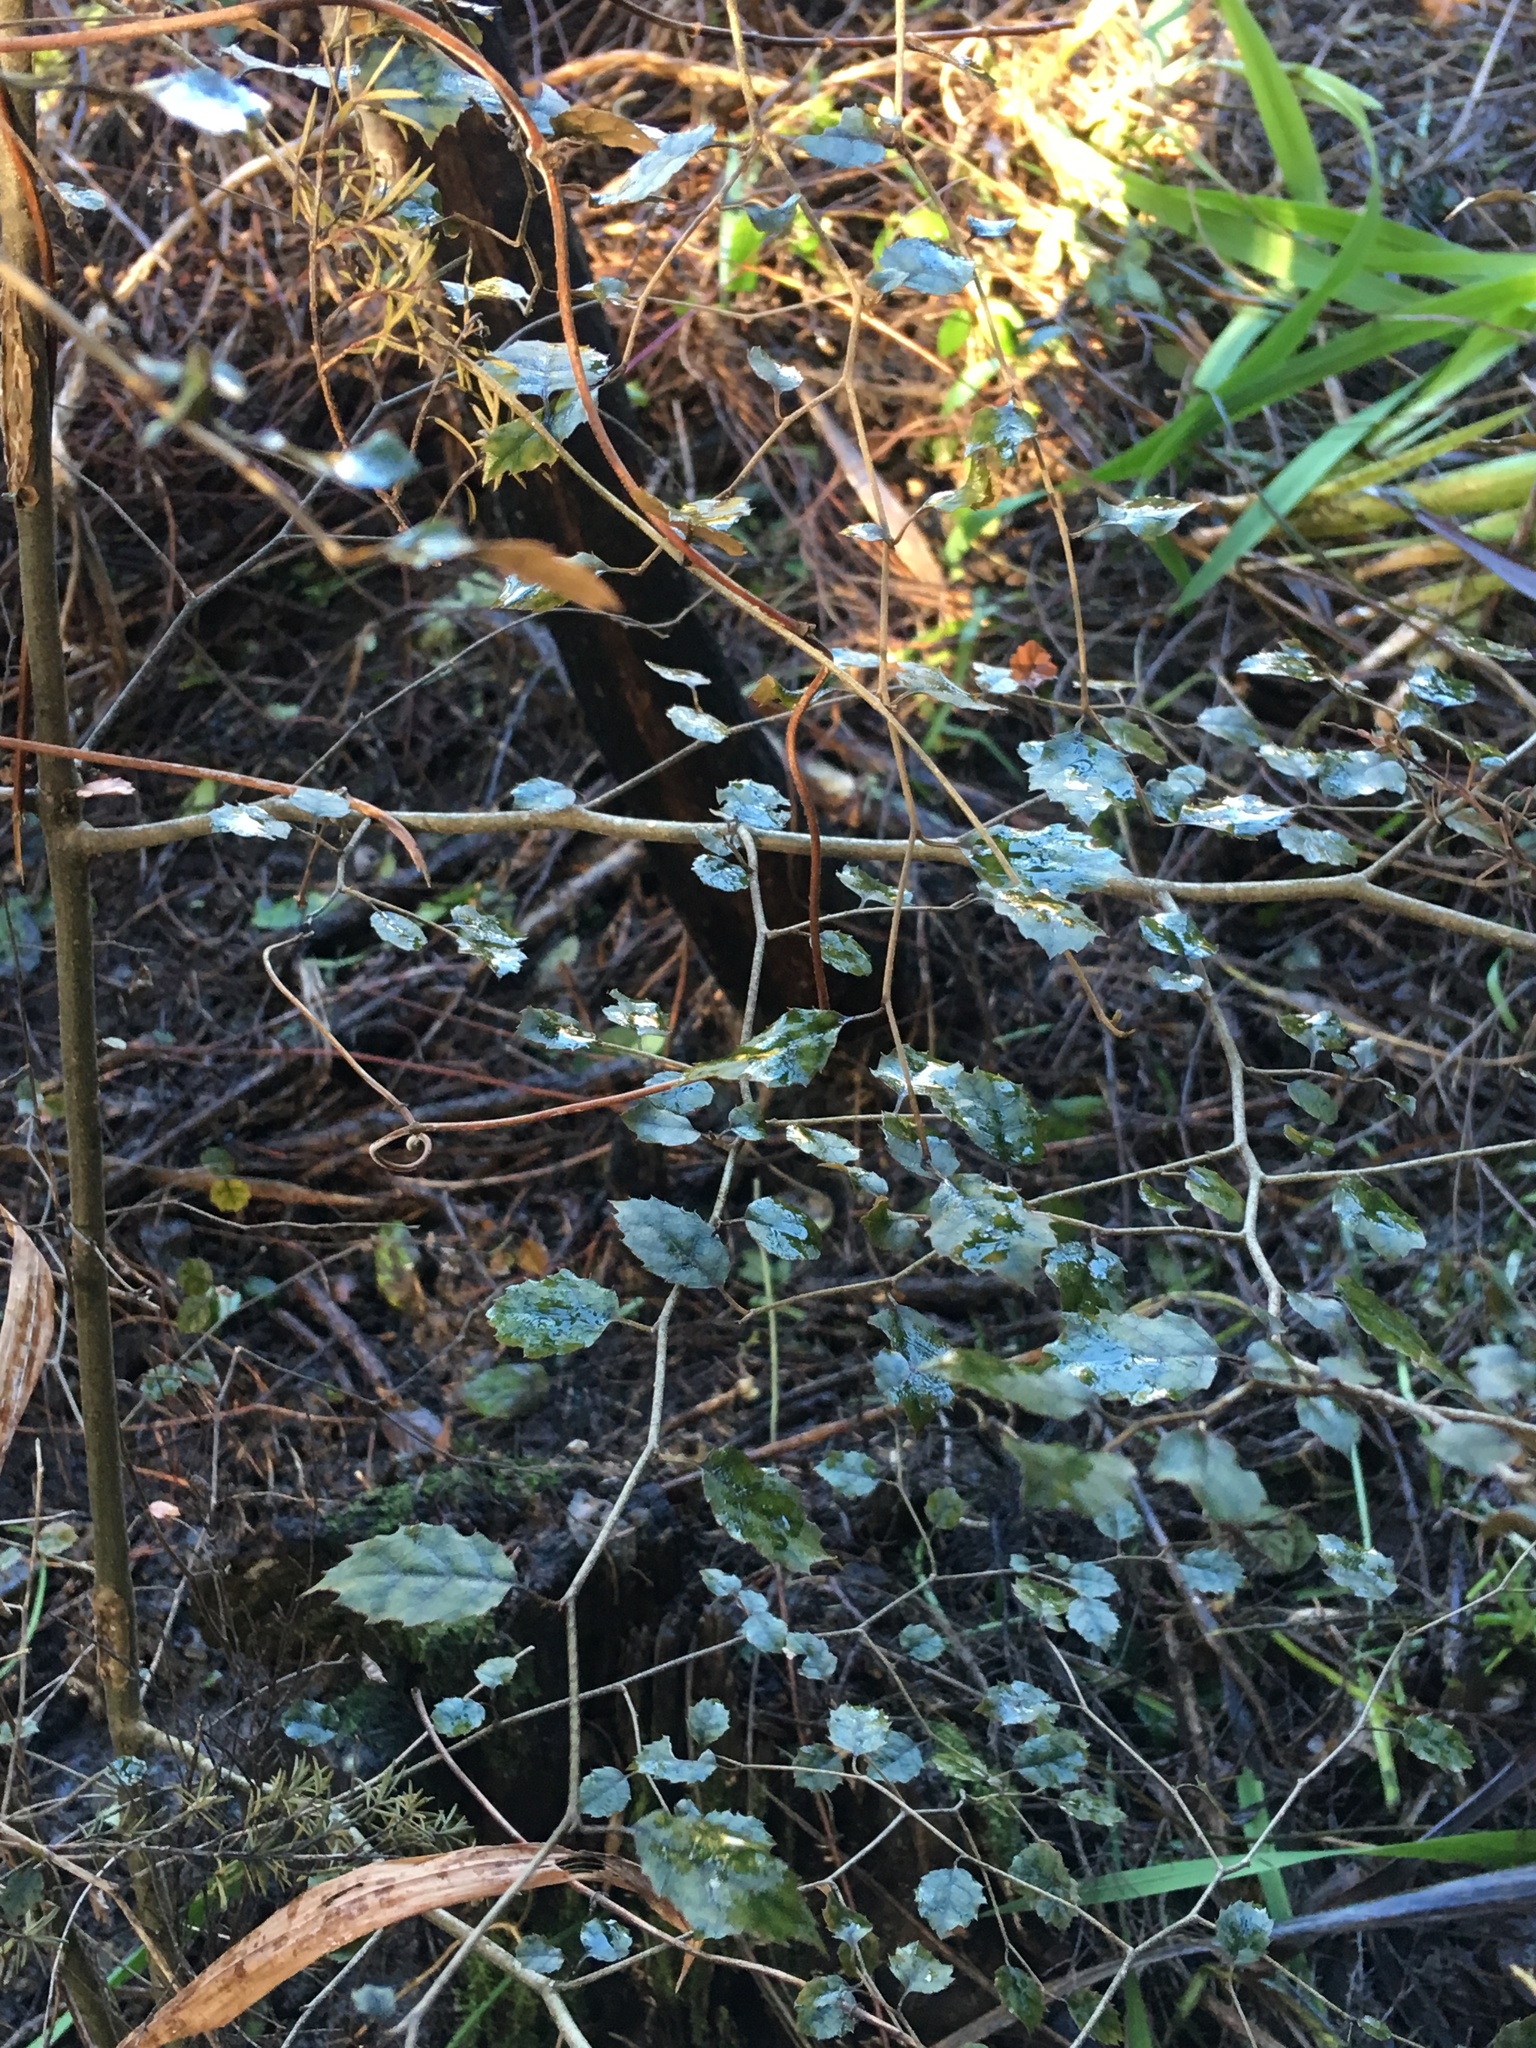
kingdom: Plantae
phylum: Tracheophyta
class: Magnoliopsida
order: Asterales
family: Rousseaceae
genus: Carpodetus
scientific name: Carpodetus serratus
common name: White mapau
